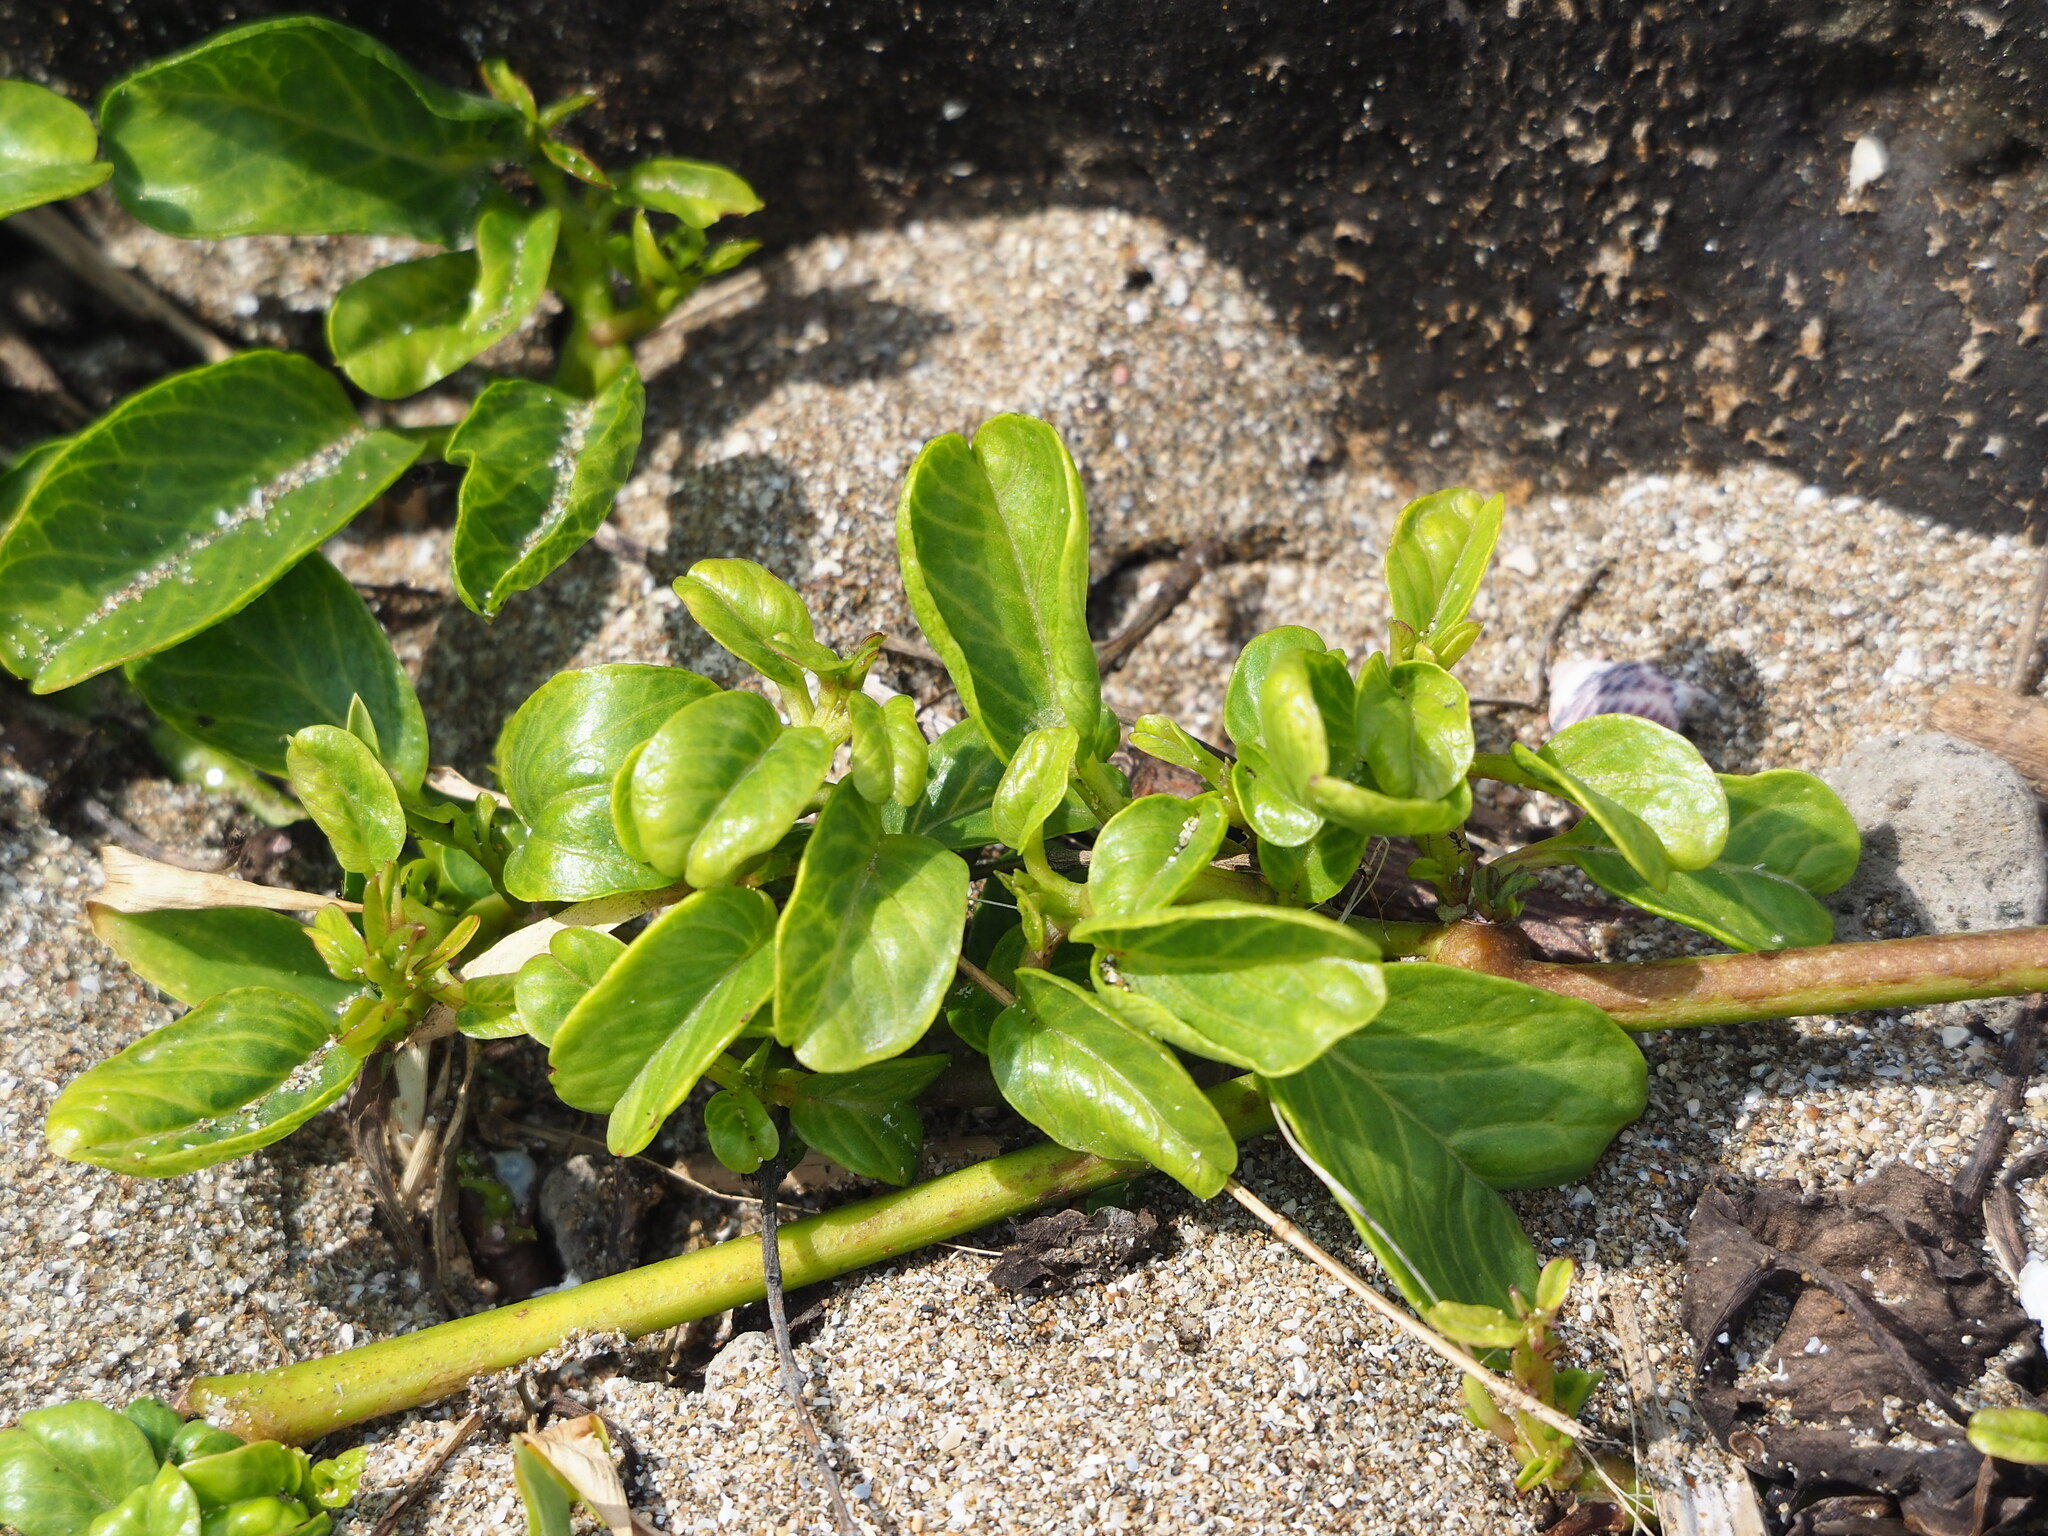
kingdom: Plantae
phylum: Tracheophyta
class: Magnoliopsida
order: Solanales
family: Convolvulaceae
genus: Ipomoea
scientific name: Ipomoea imperati
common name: Fiddle-leaf morning-glory
